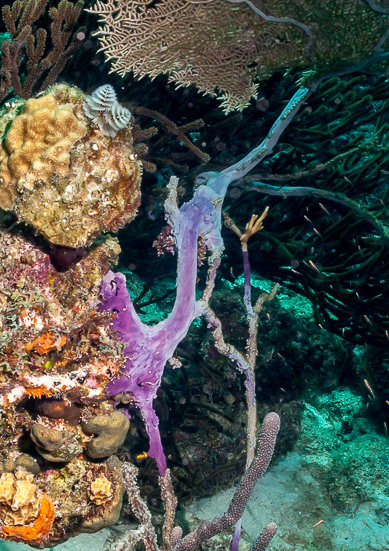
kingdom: Animalia
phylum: Cnidaria
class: Anthozoa
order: Malacalcyonacea
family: Gorgoniidae
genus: Gorgonia
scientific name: Gorgonia ventalina
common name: Common sea fan
